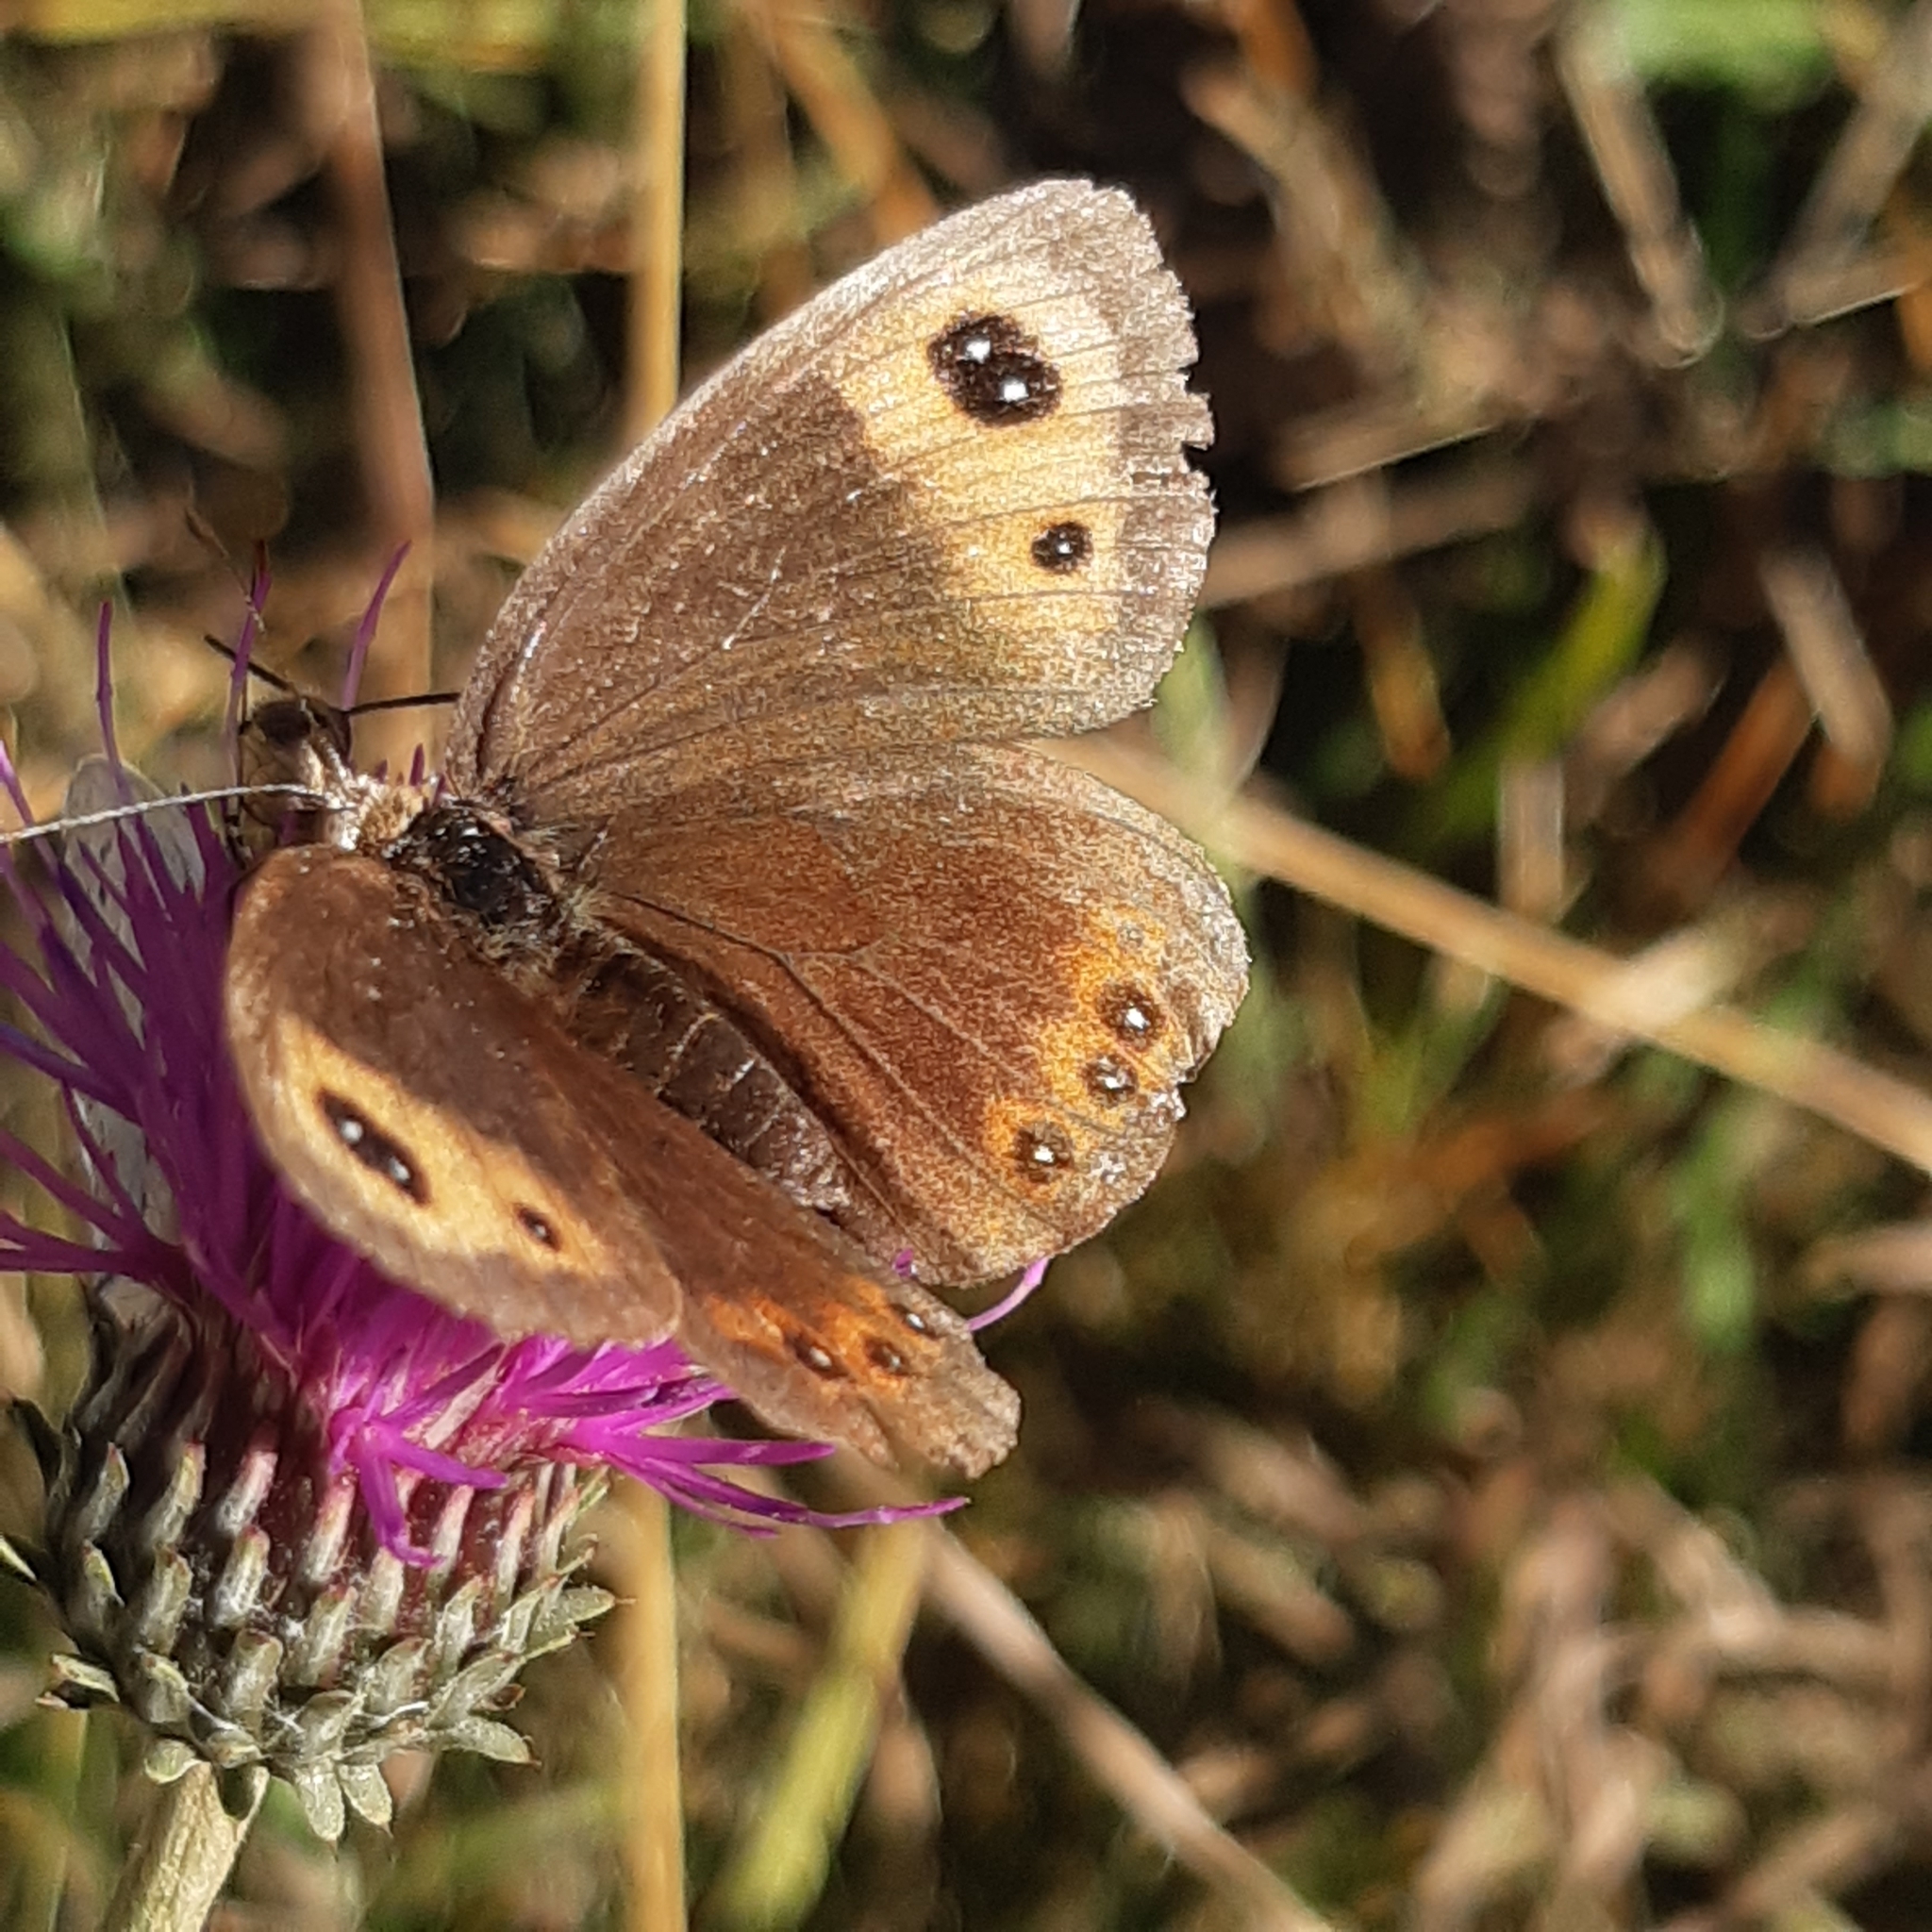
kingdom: Animalia
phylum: Arthropoda
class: Insecta
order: Lepidoptera
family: Nymphalidae
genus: Erebia
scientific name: Erebia neoridas
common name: Autumn ringlet
